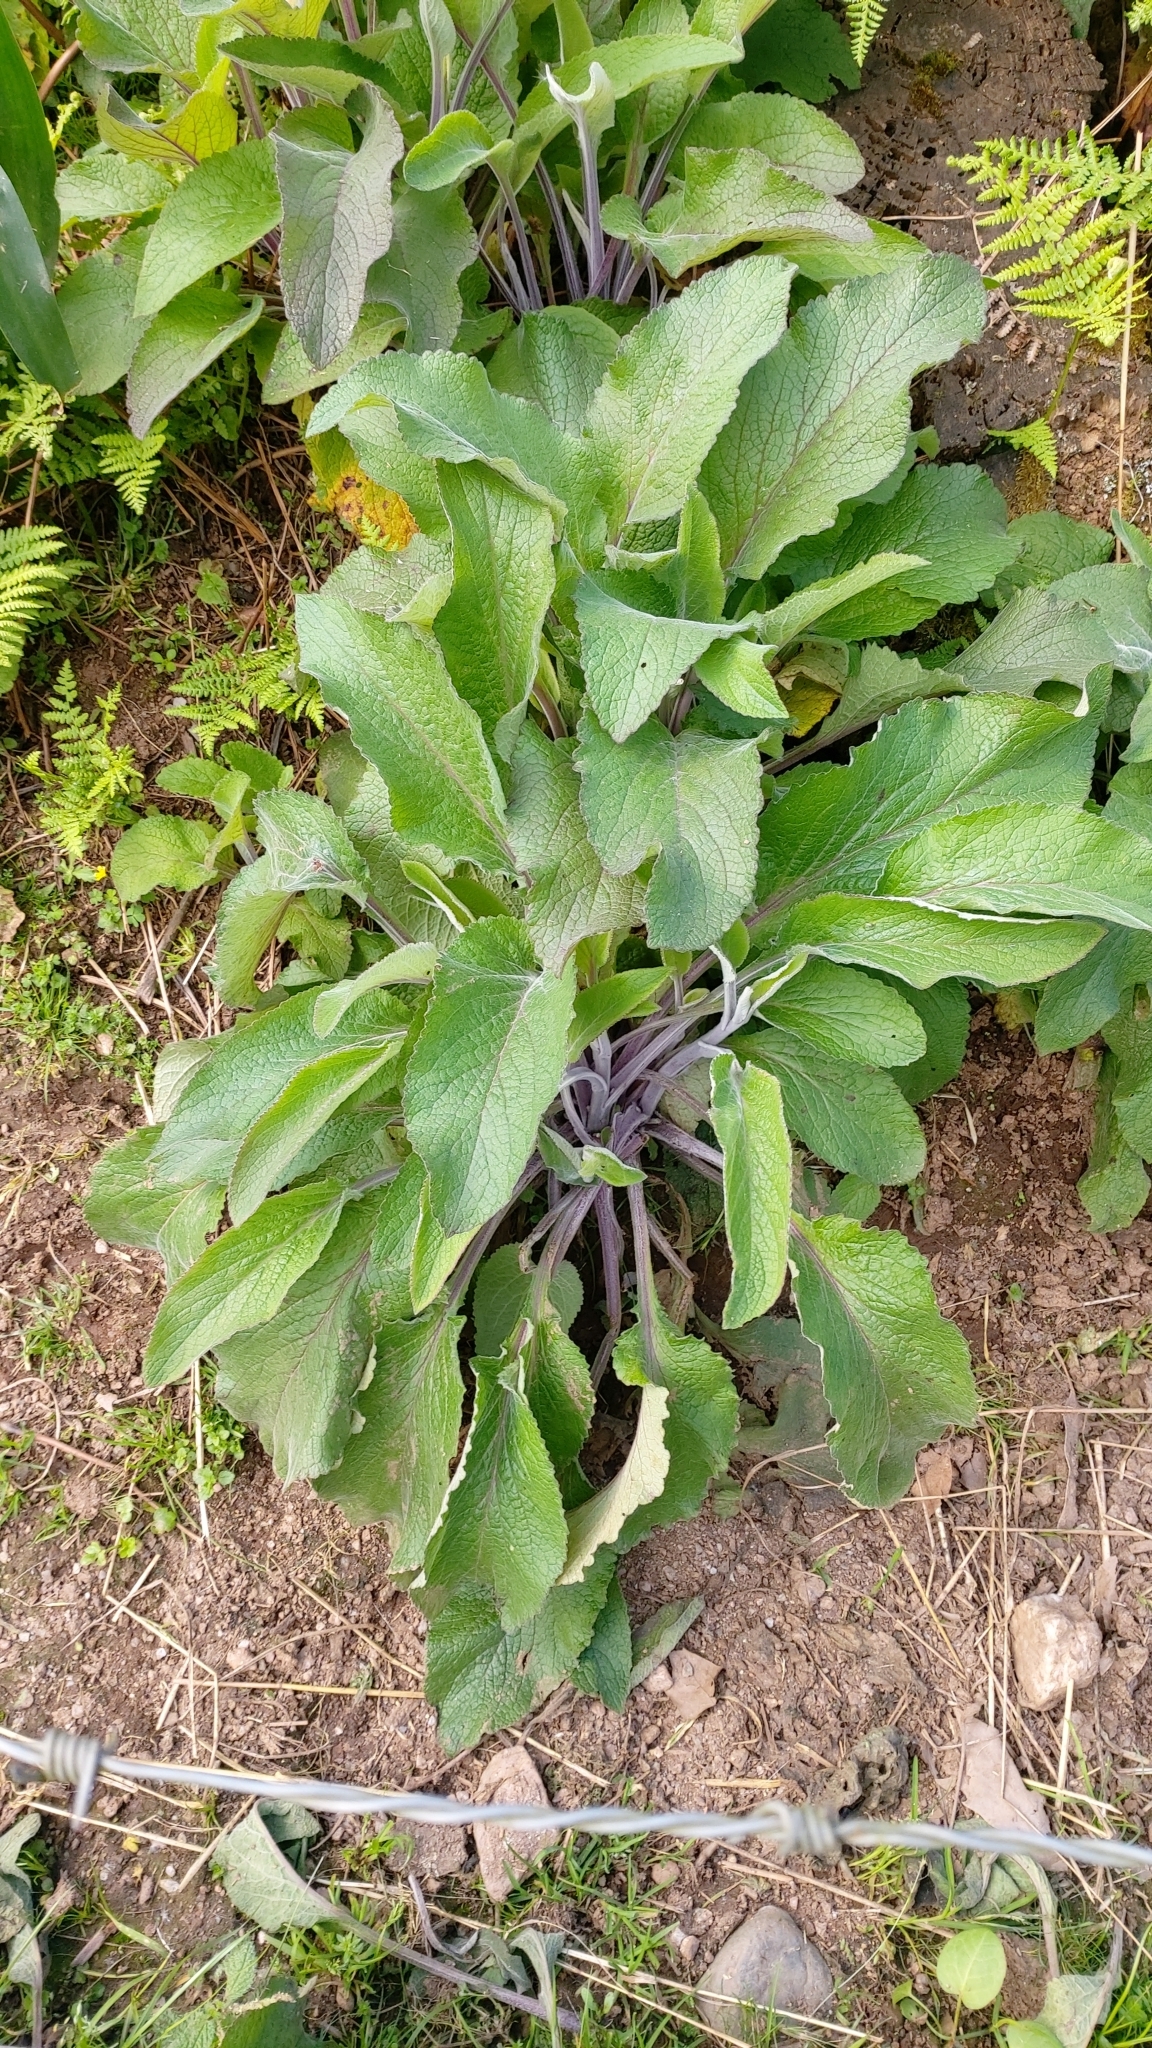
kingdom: Plantae
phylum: Tracheophyta
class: Magnoliopsida
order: Lamiales
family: Plantaginaceae
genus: Digitalis
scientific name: Digitalis purpurea
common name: Foxglove
